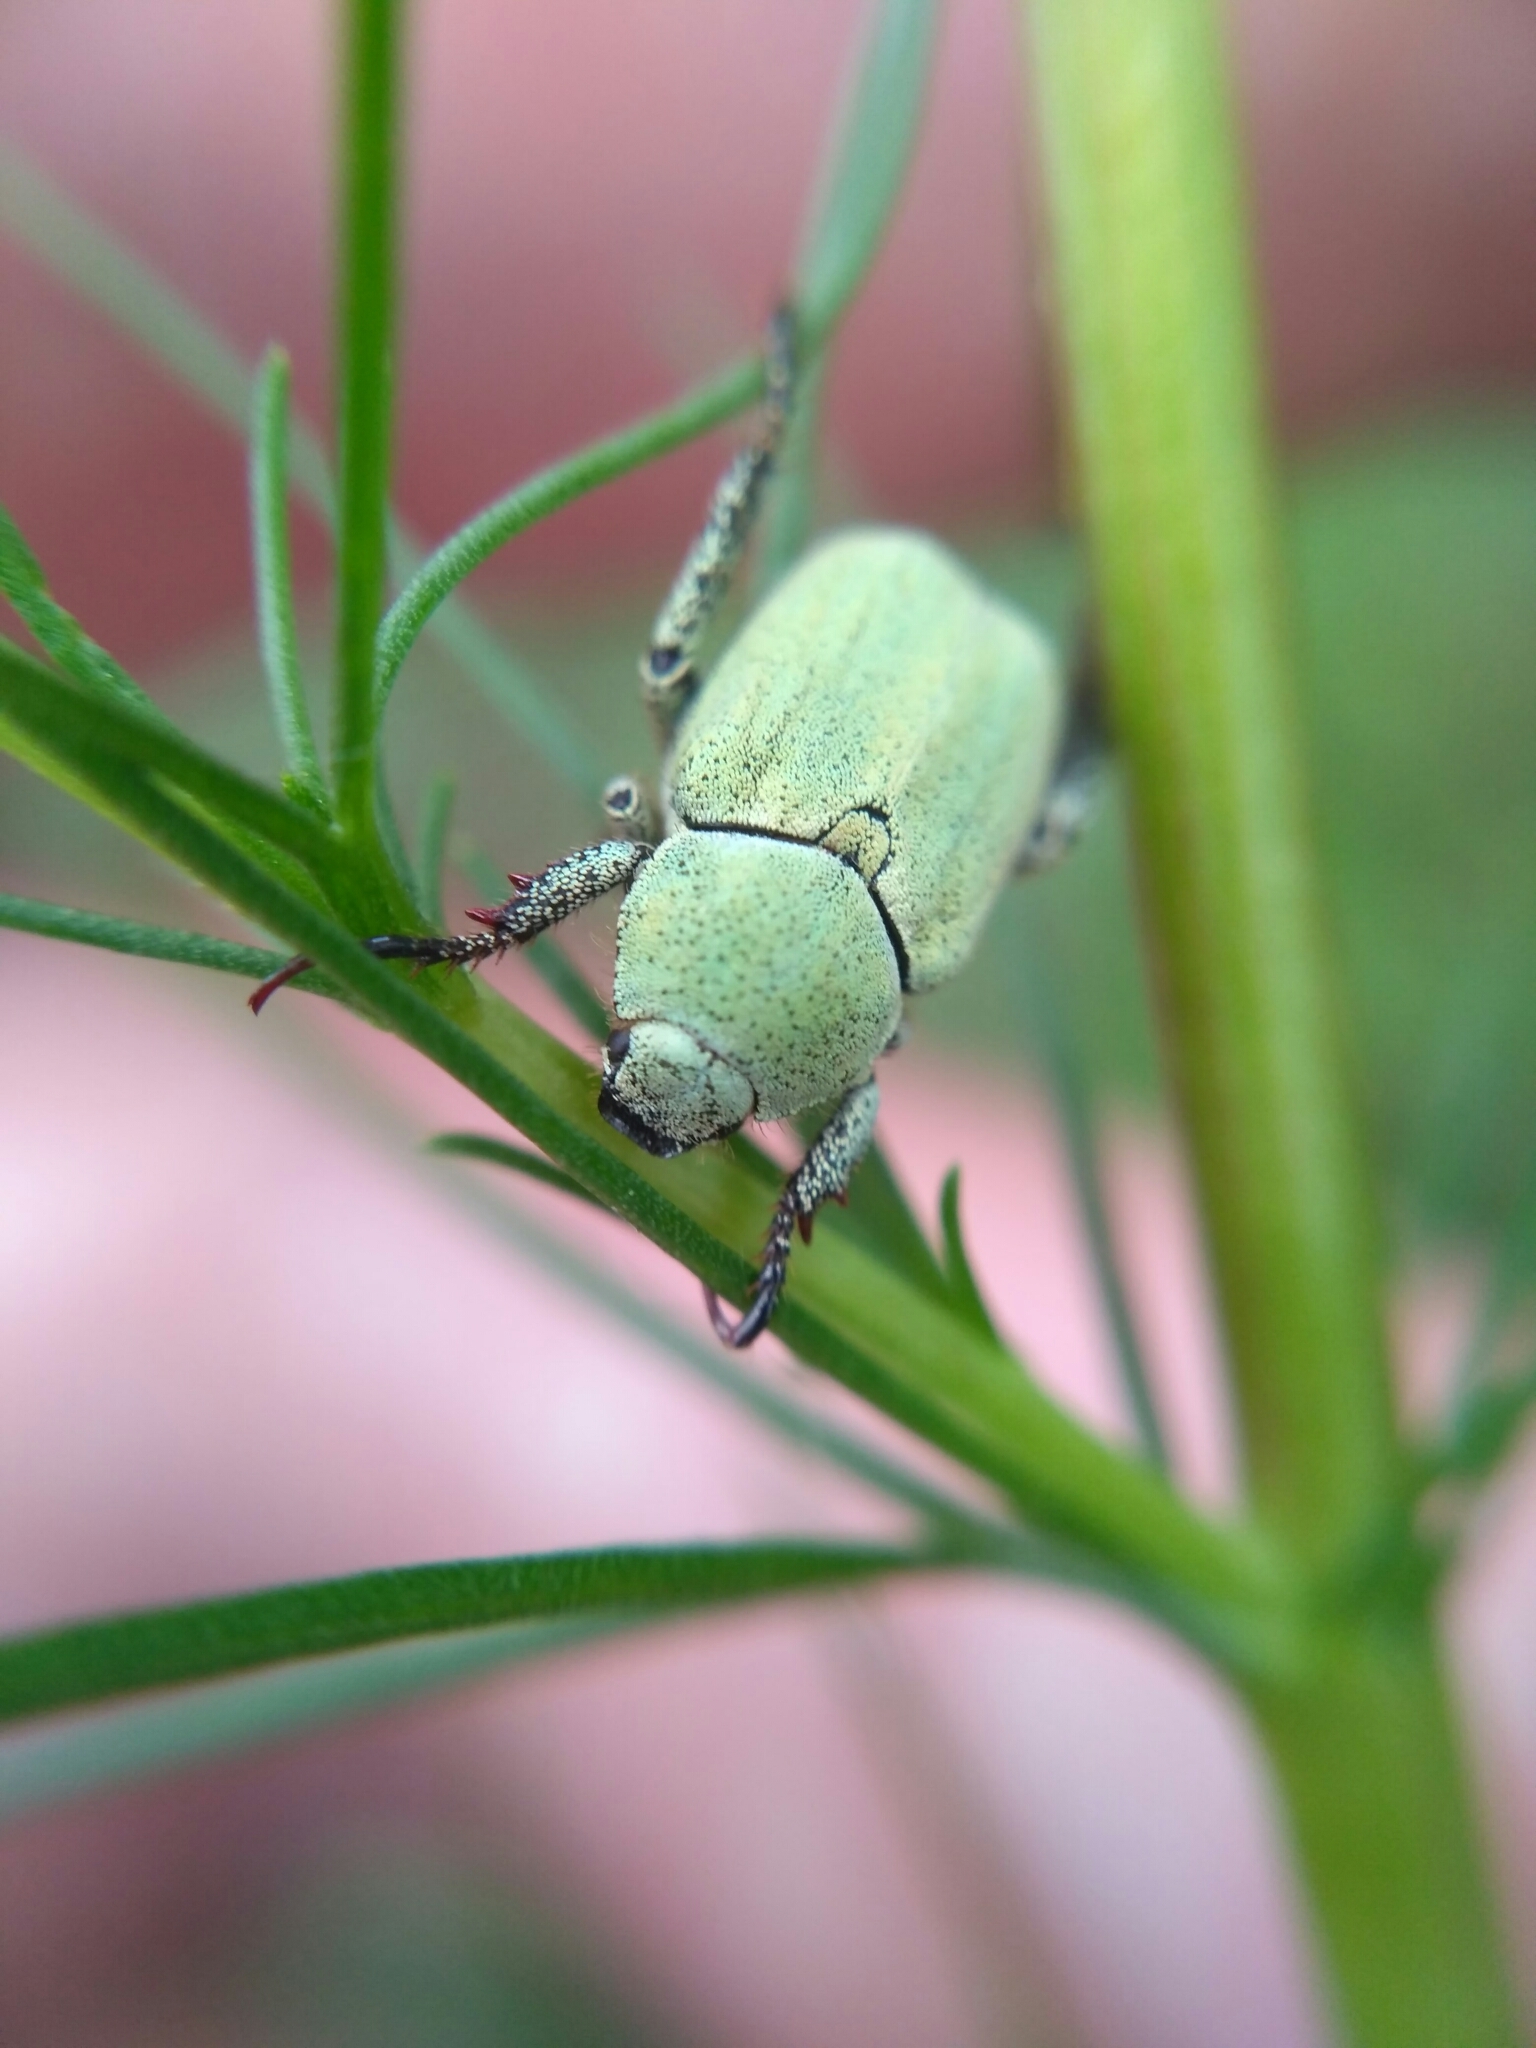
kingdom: Animalia
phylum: Arthropoda
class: Insecta
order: Coleoptera
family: Scarabaeidae
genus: Hoplia
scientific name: Hoplia parvula
